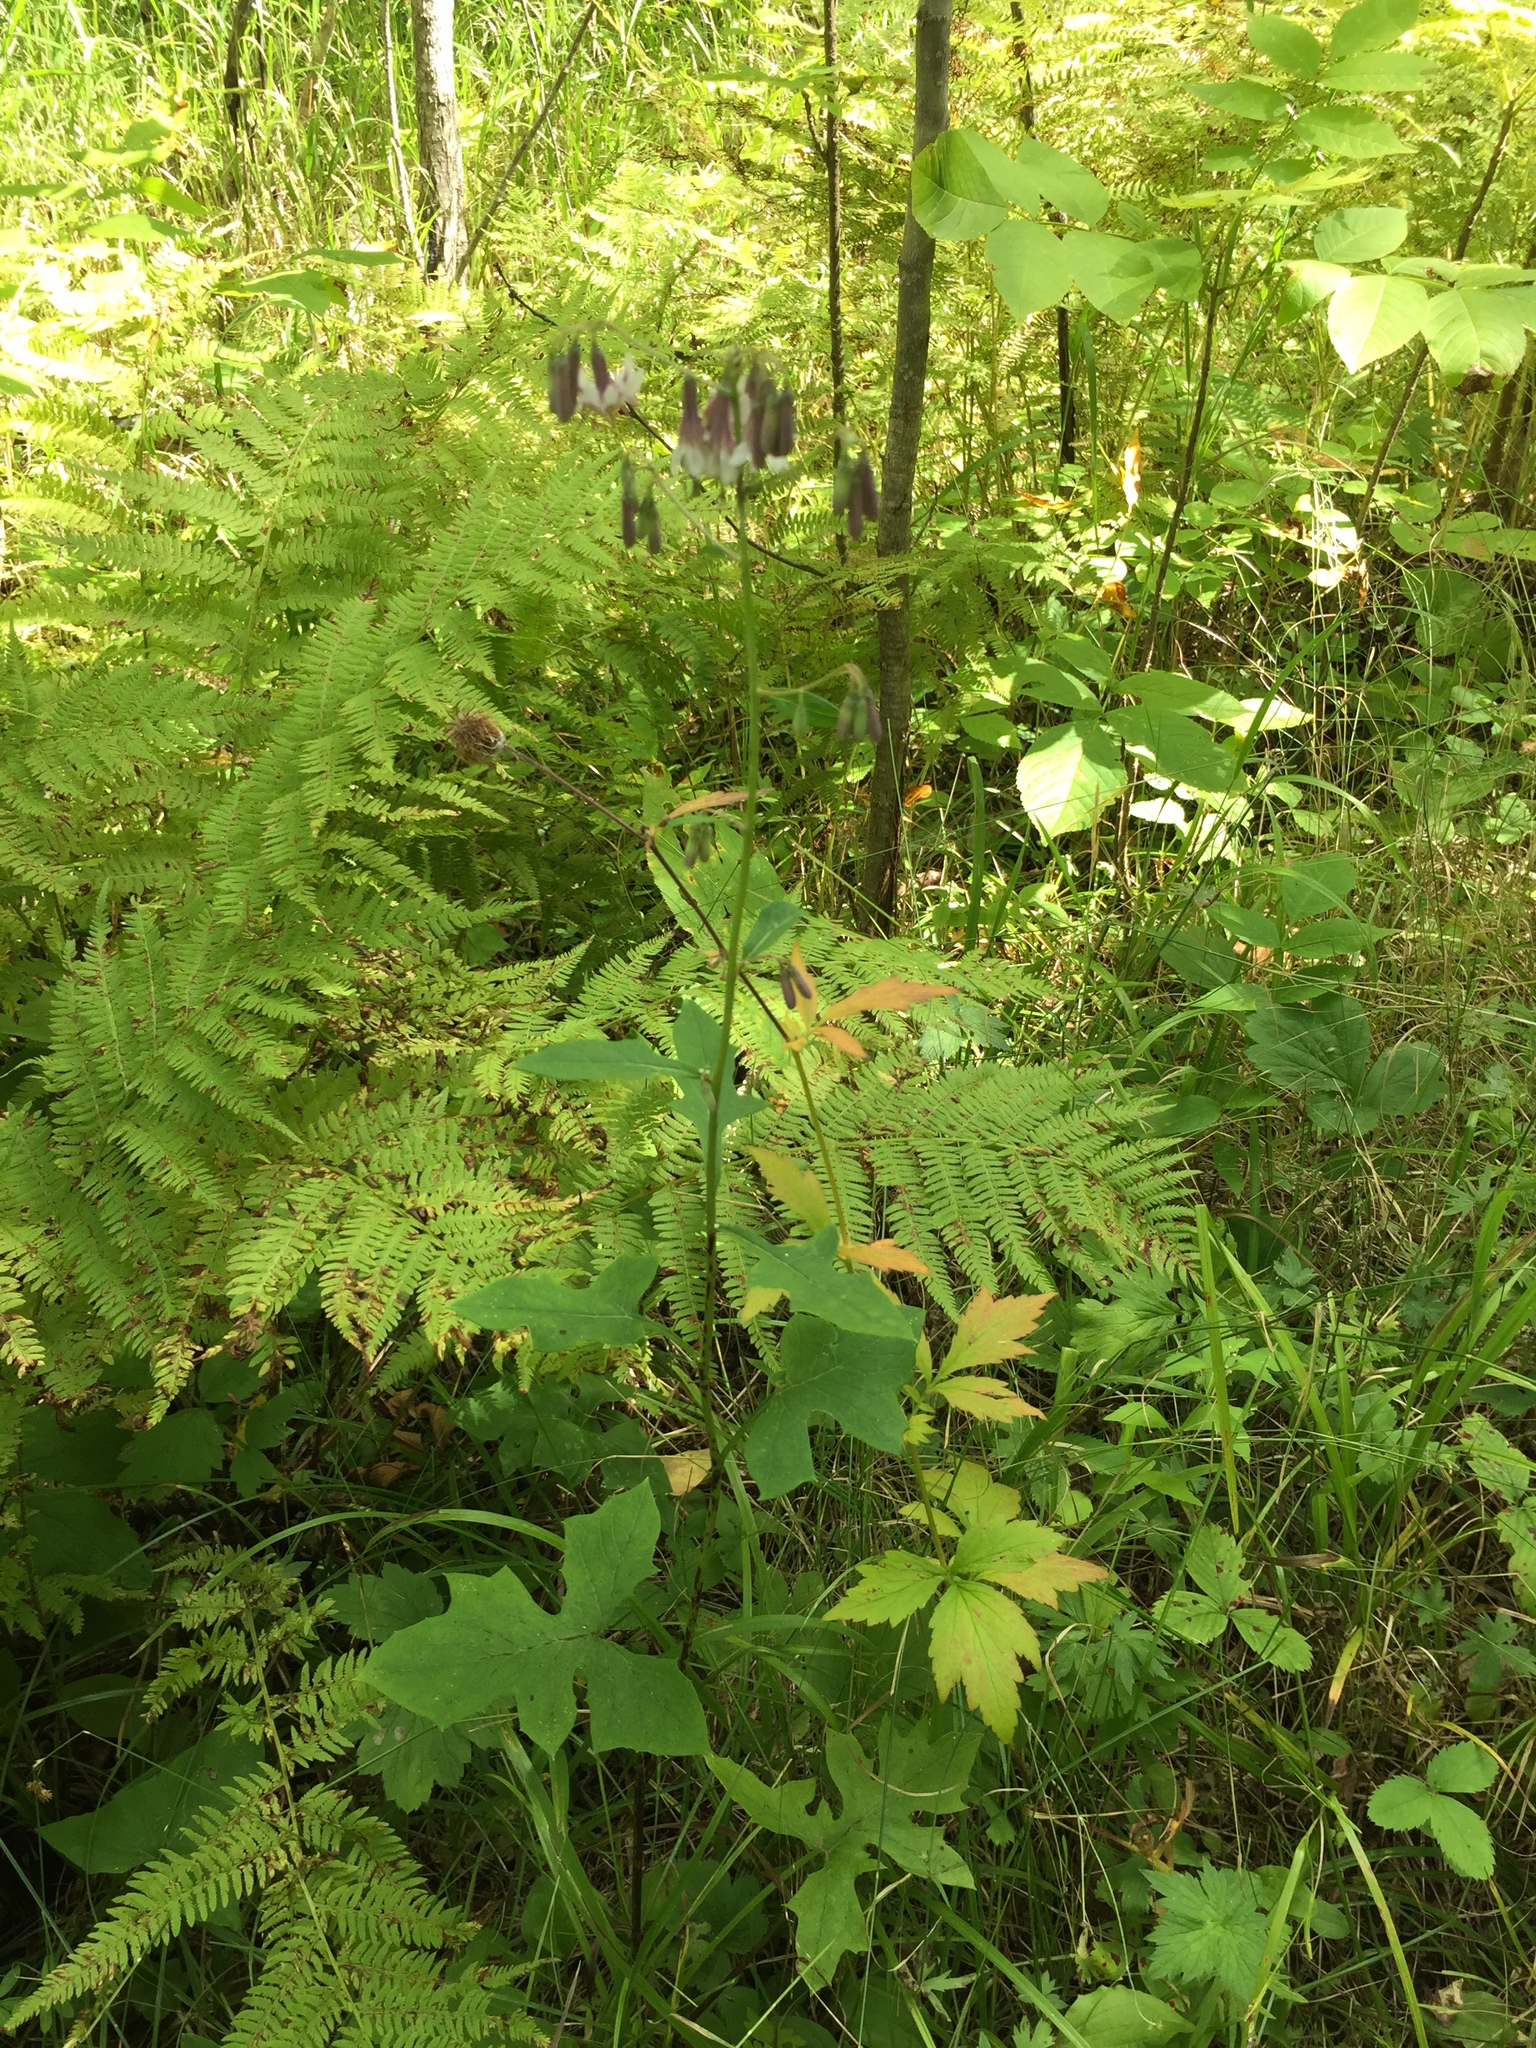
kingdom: Plantae
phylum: Tracheophyta
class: Magnoliopsida
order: Asterales
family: Asteraceae
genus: Nabalus
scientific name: Nabalus albus
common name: White rattlesnakeroot
